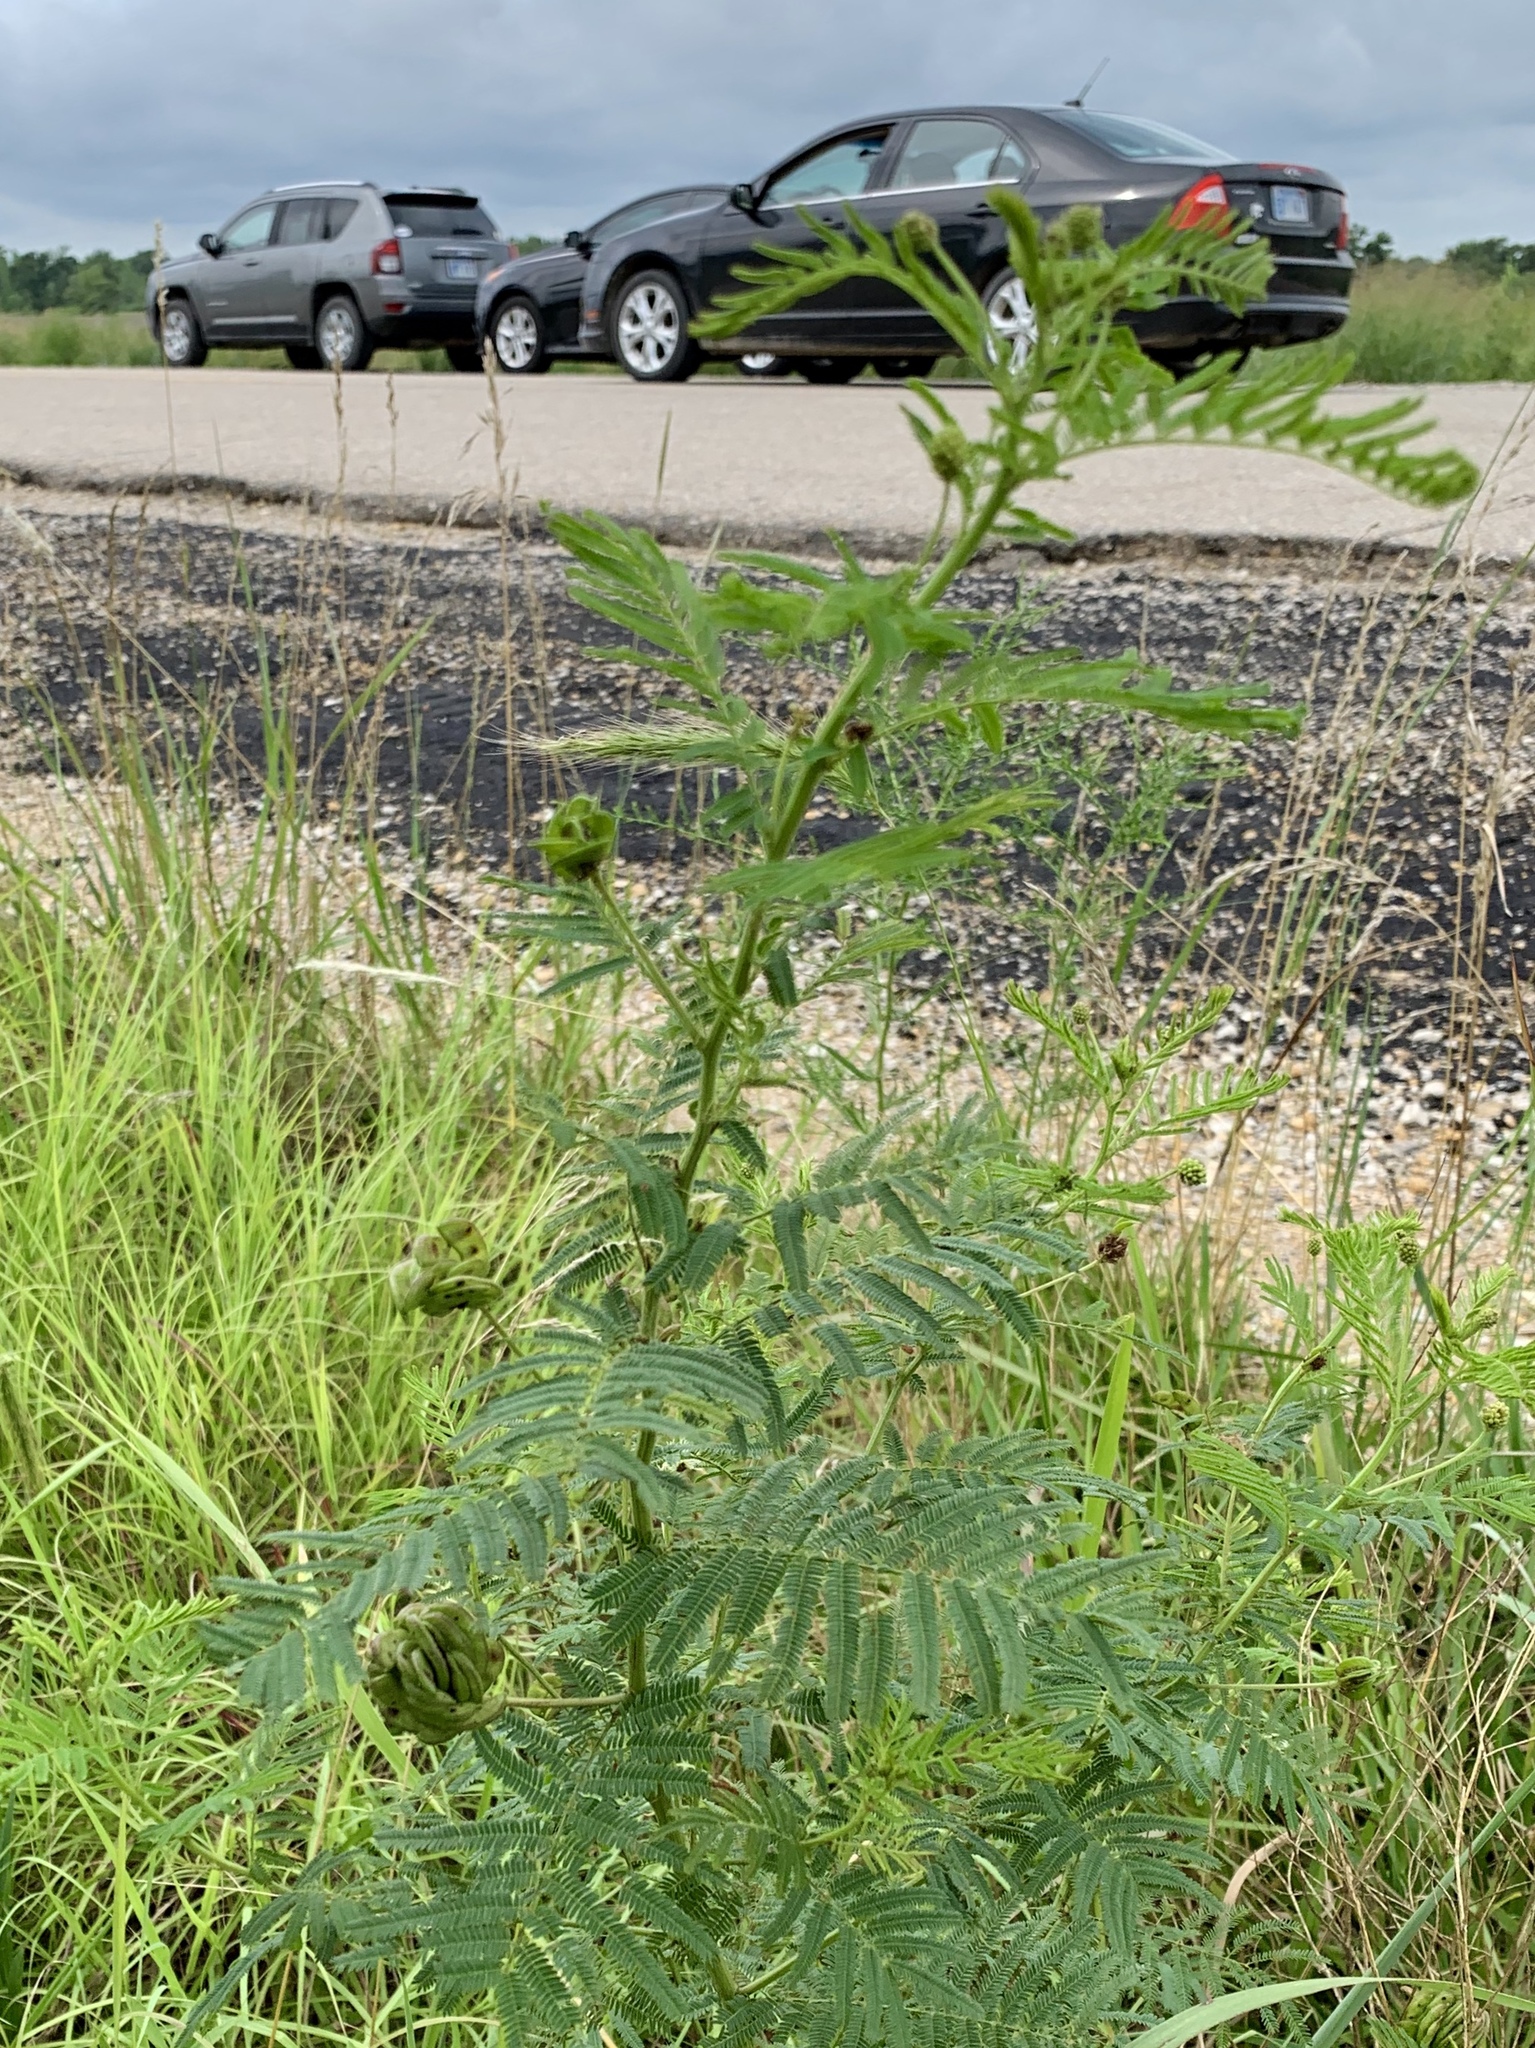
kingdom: Plantae
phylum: Tracheophyta
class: Magnoliopsida
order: Fabales
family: Fabaceae
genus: Desmanthus
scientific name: Desmanthus illinoensis
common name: Illinois bundle-flower
